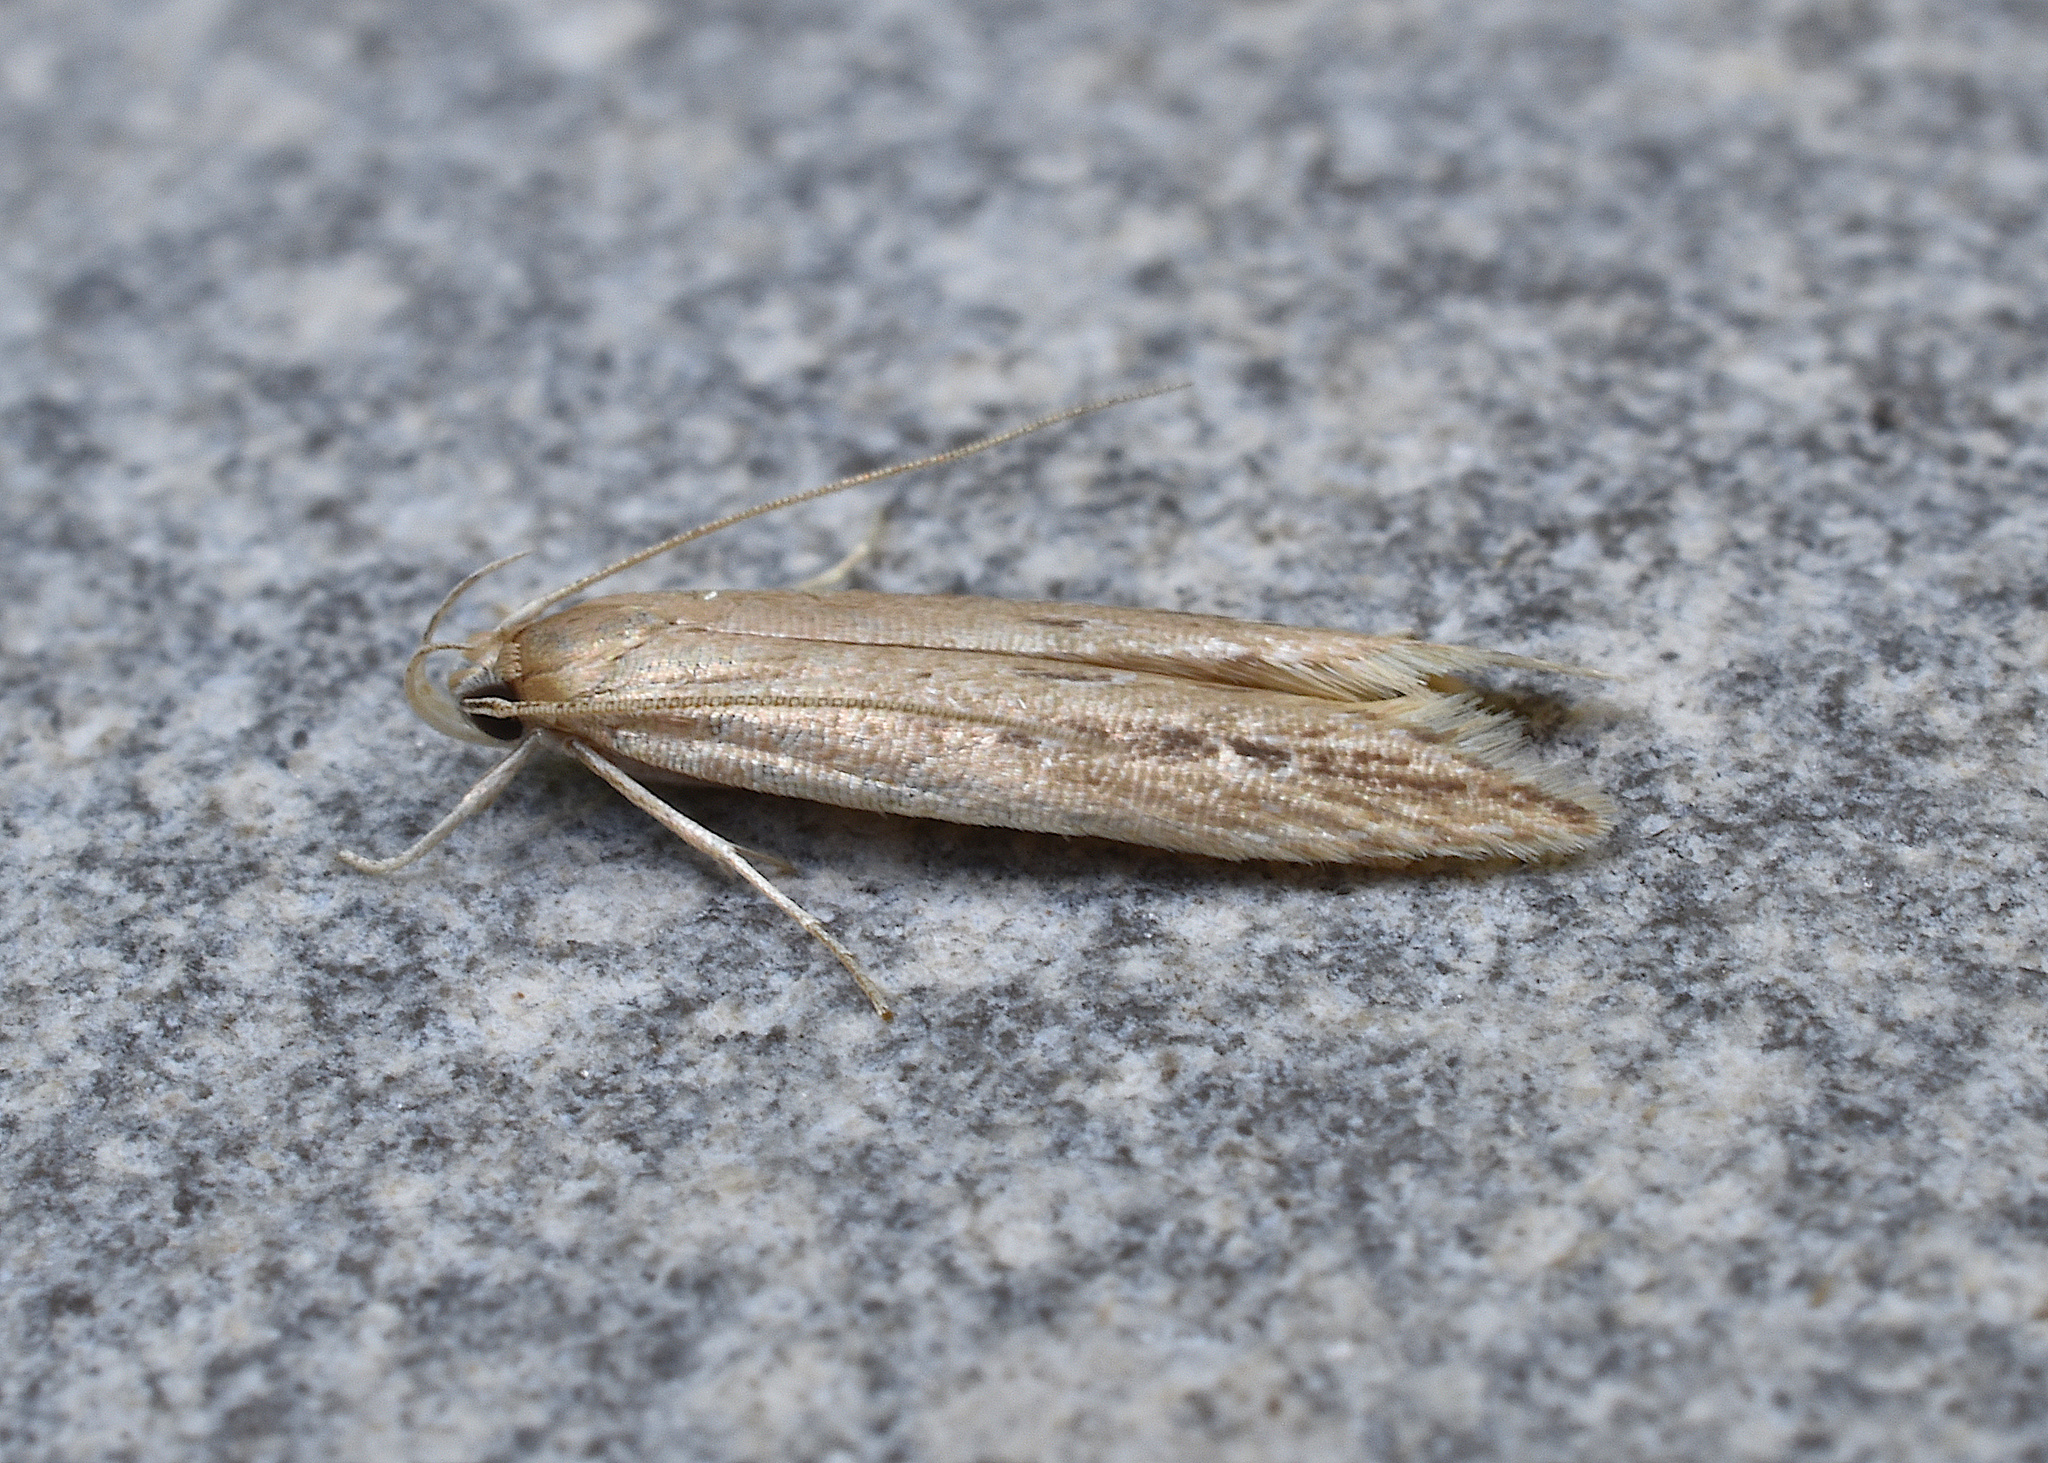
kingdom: Animalia
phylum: Arthropoda
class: Insecta
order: Lepidoptera
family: Cosmopterigidae
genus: Limnaecia
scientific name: Limnaecia phragmitella
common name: Bulrush cosmet
